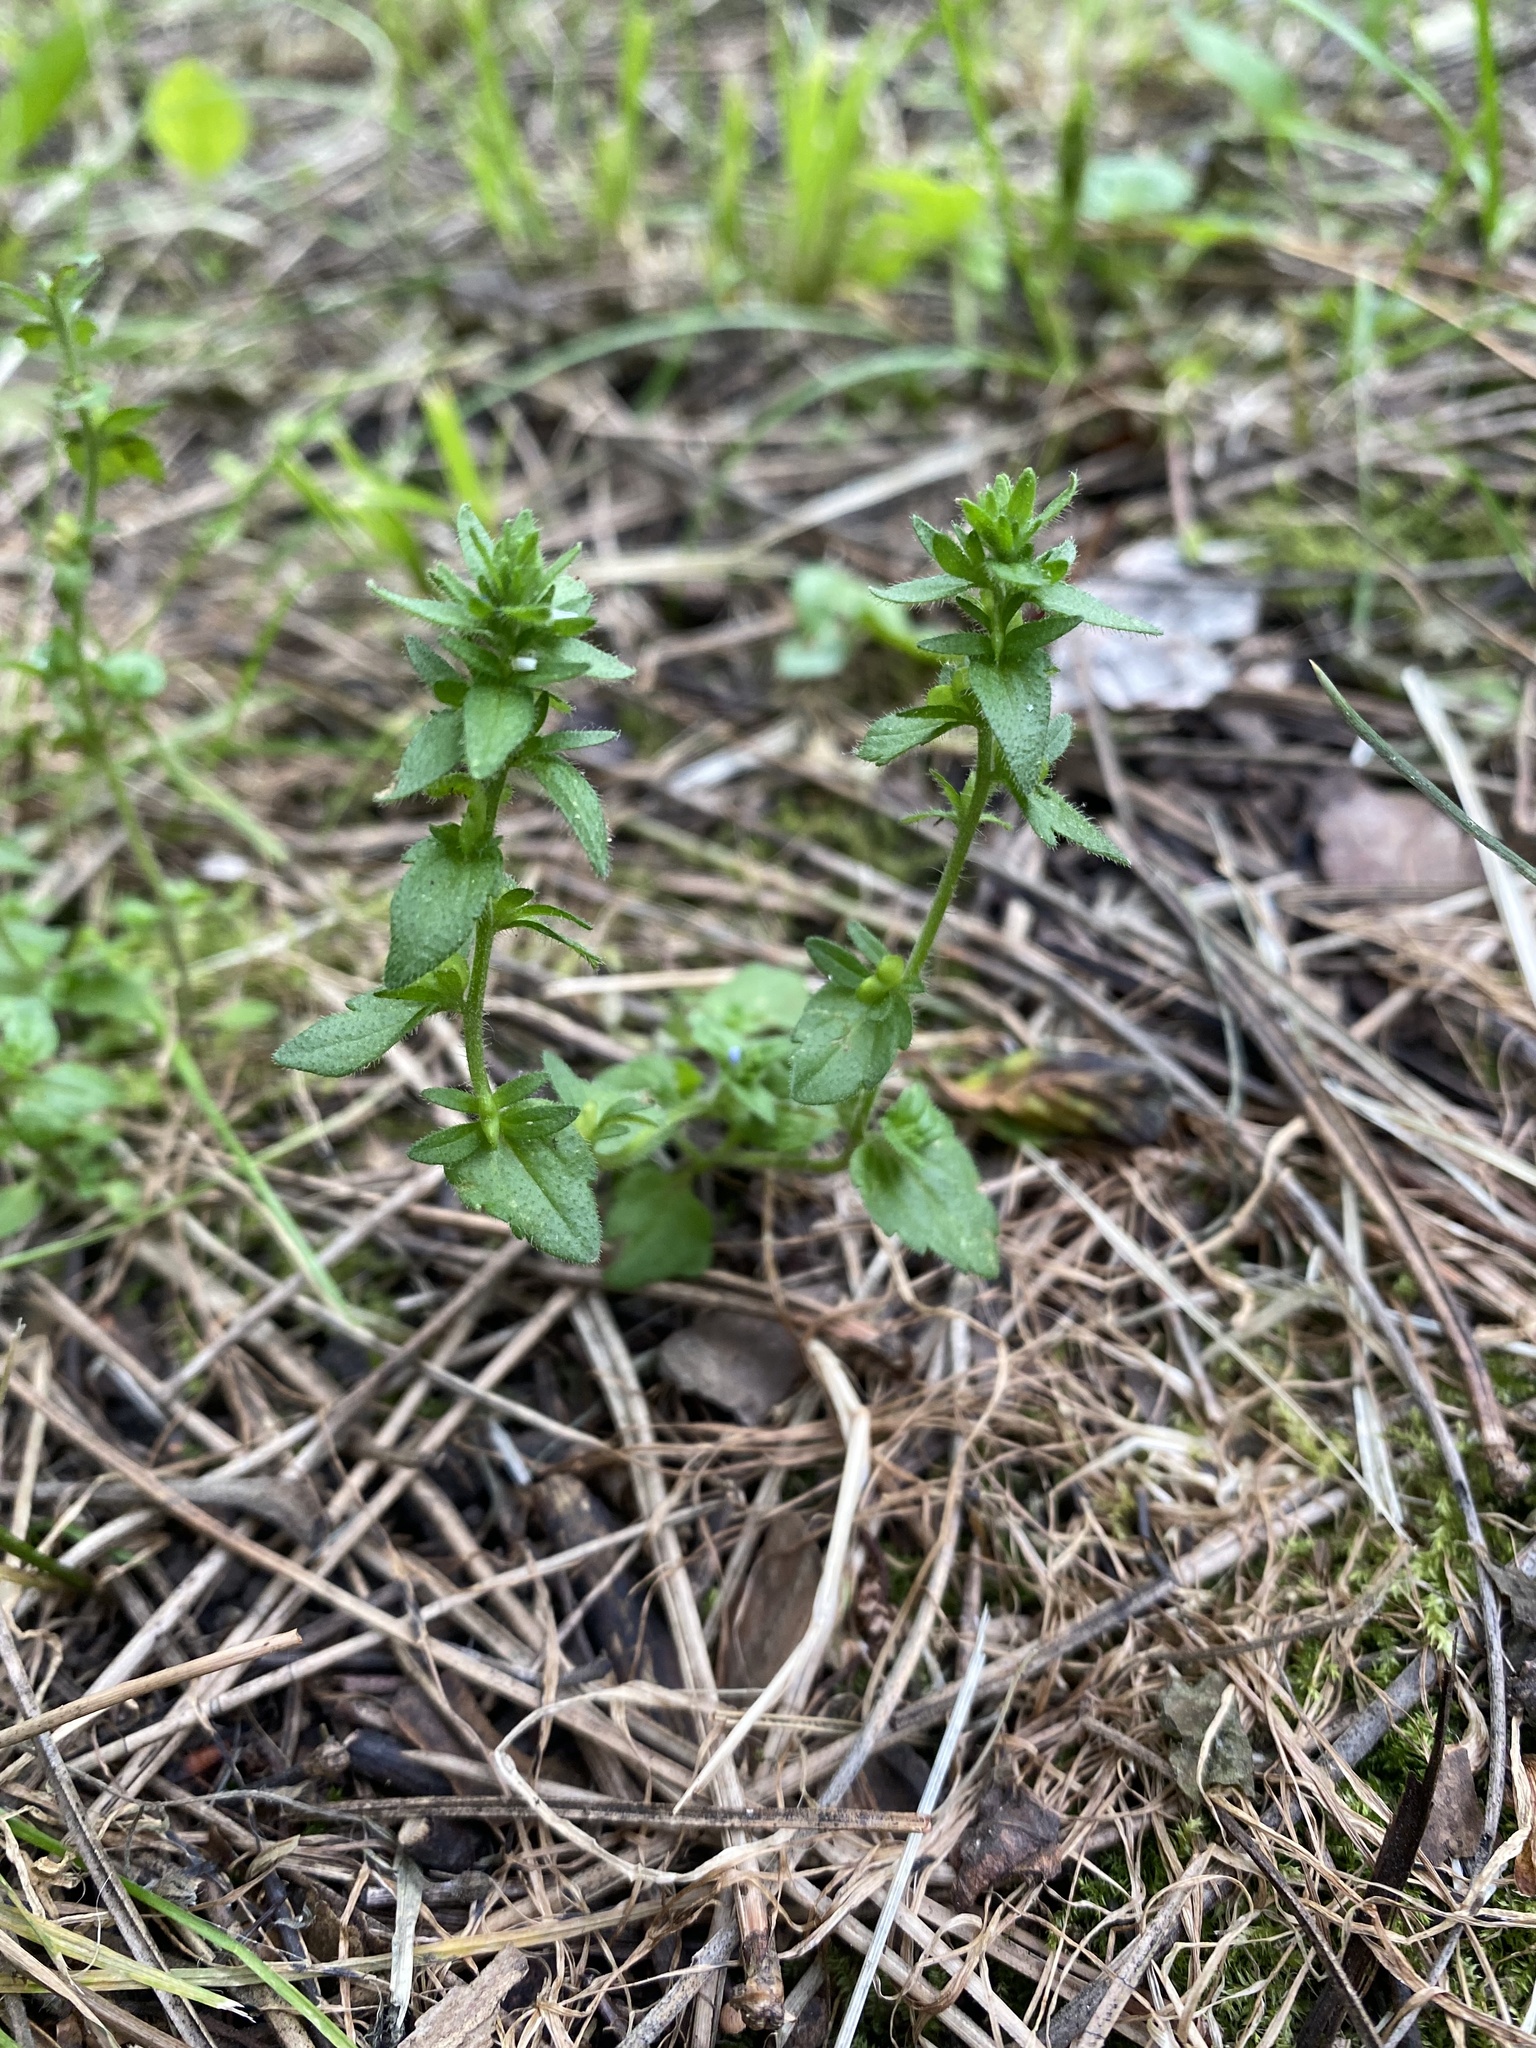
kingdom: Plantae
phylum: Tracheophyta
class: Magnoliopsida
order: Lamiales
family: Plantaginaceae
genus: Veronica
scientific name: Veronica arvensis
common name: Corn speedwell
